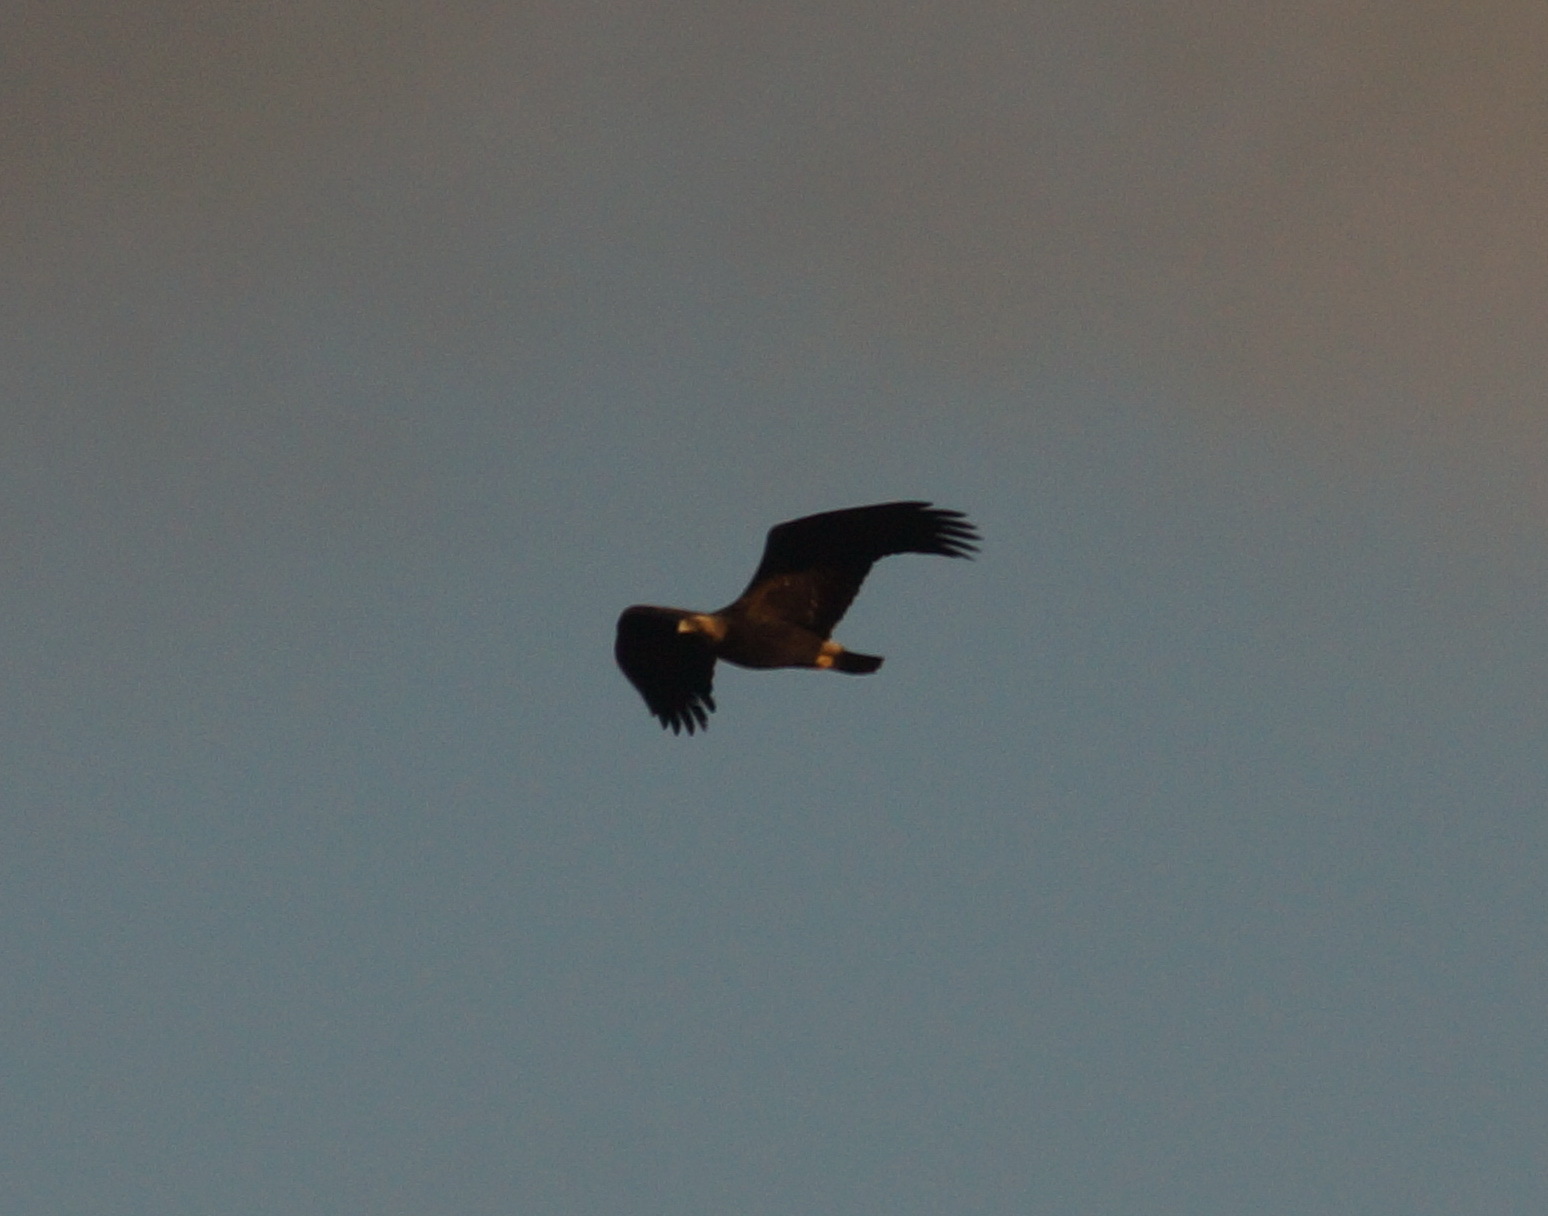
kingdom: Animalia
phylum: Chordata
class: Aves
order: Accipitriformes
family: Accipitridae
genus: Aquila
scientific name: Aquila heliaca
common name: Eastern imperial eagle
